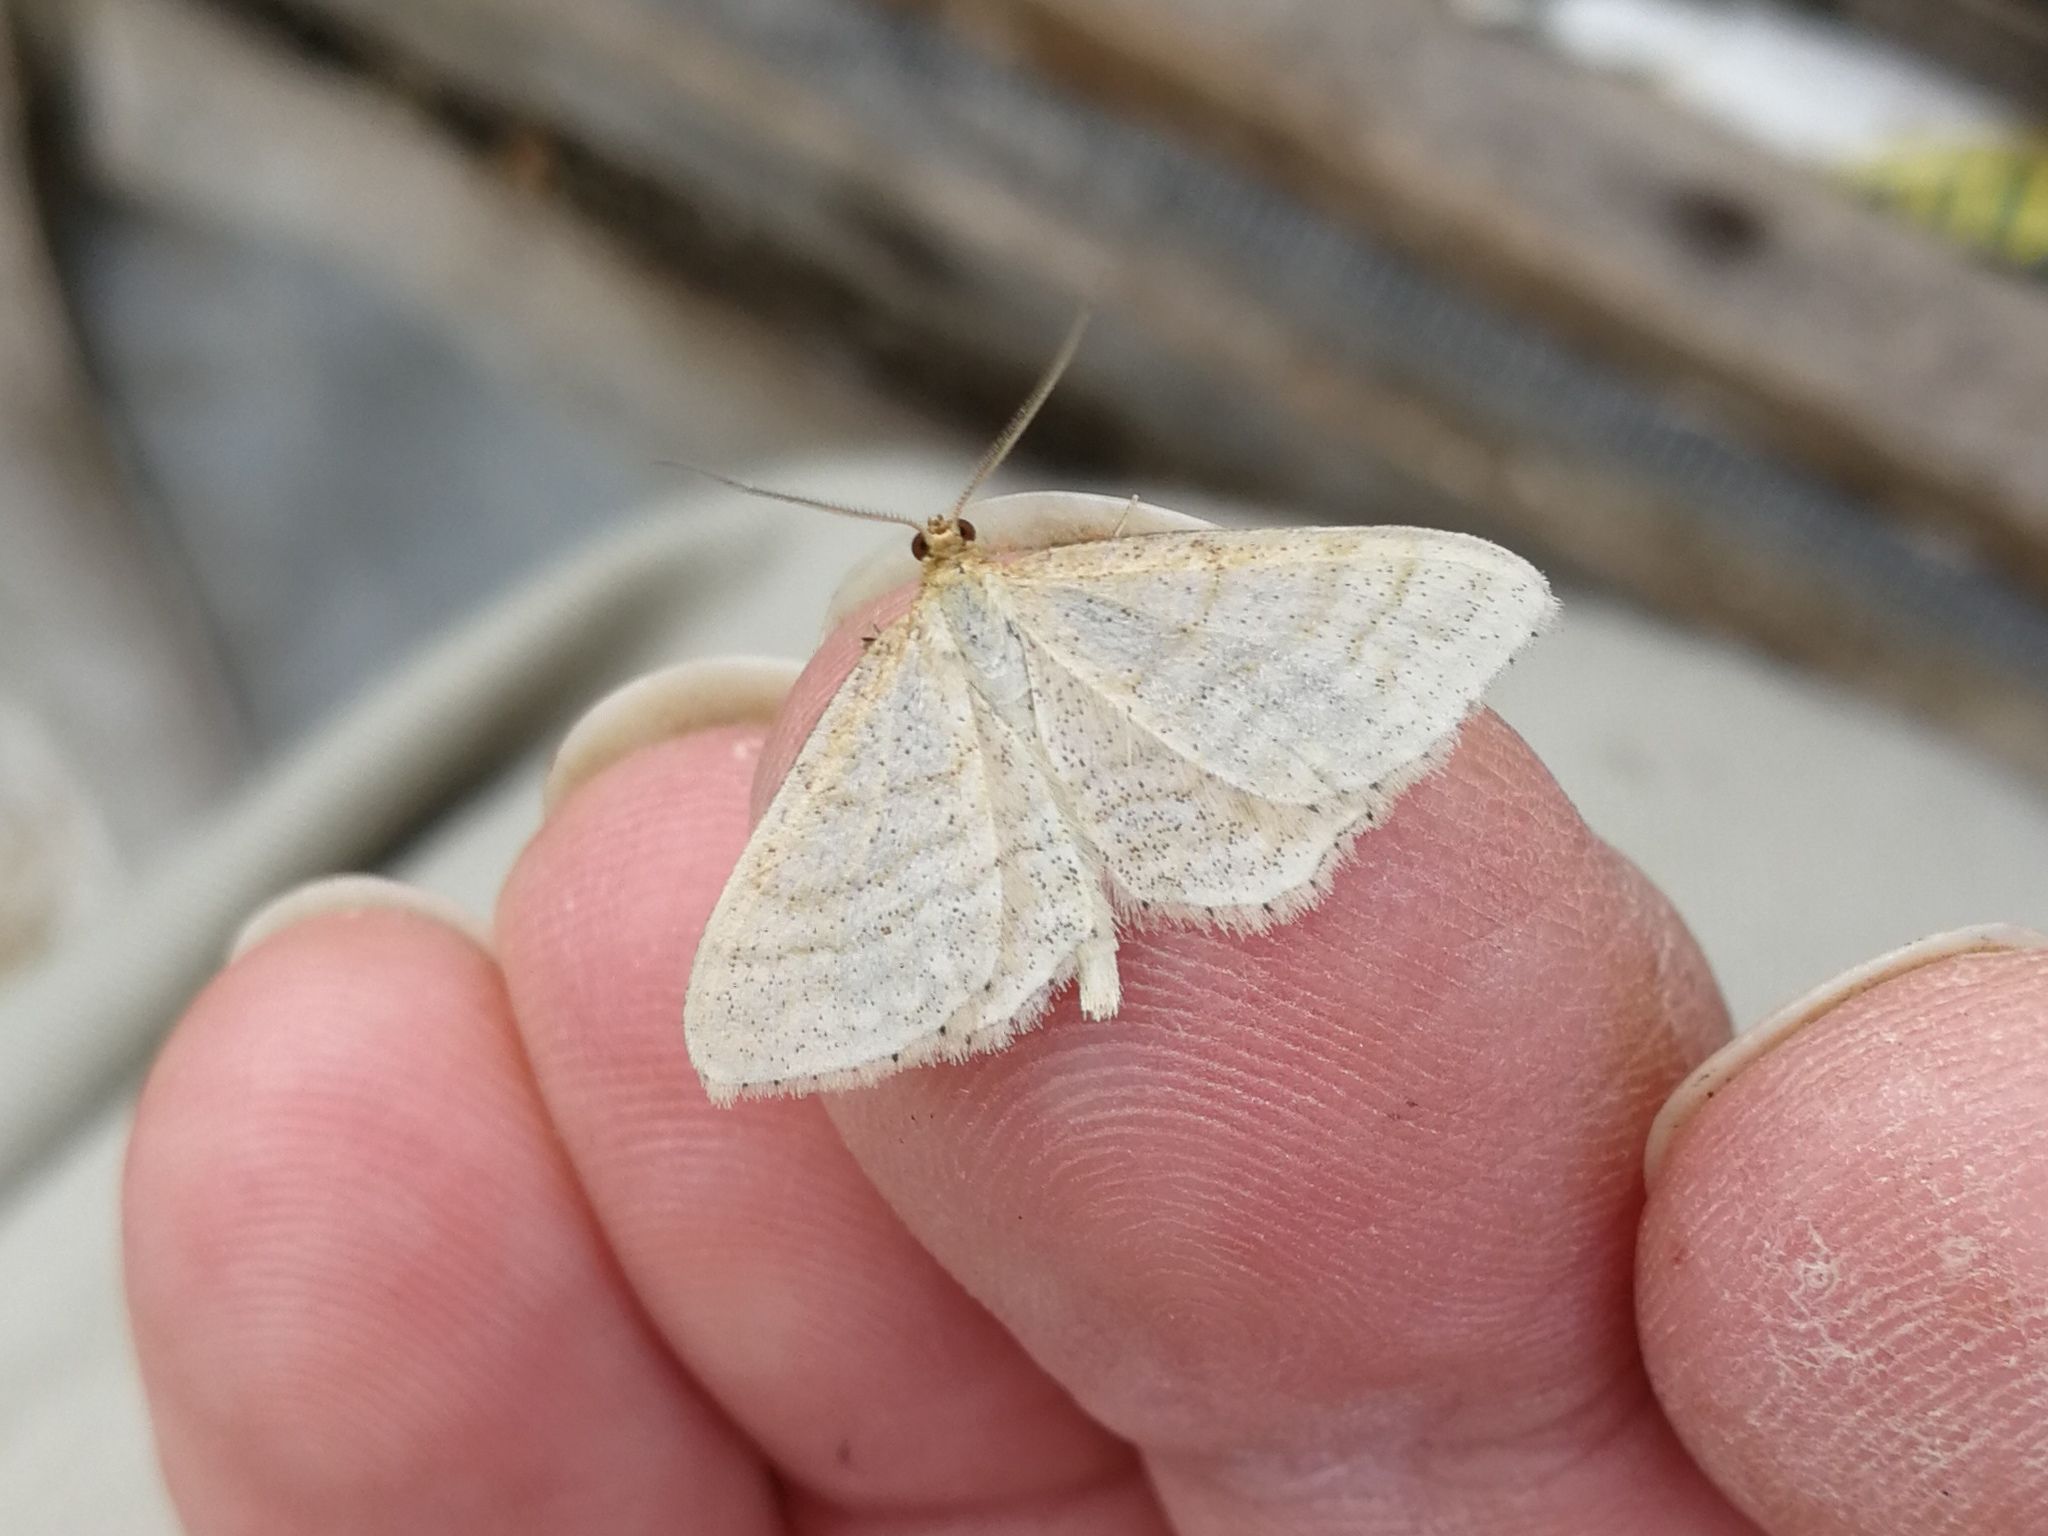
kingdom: Animalia
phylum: Arthropoda
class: Insecta
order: Lepidoptera
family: Geometridae
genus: Idaea
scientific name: Idaea antiquaria
